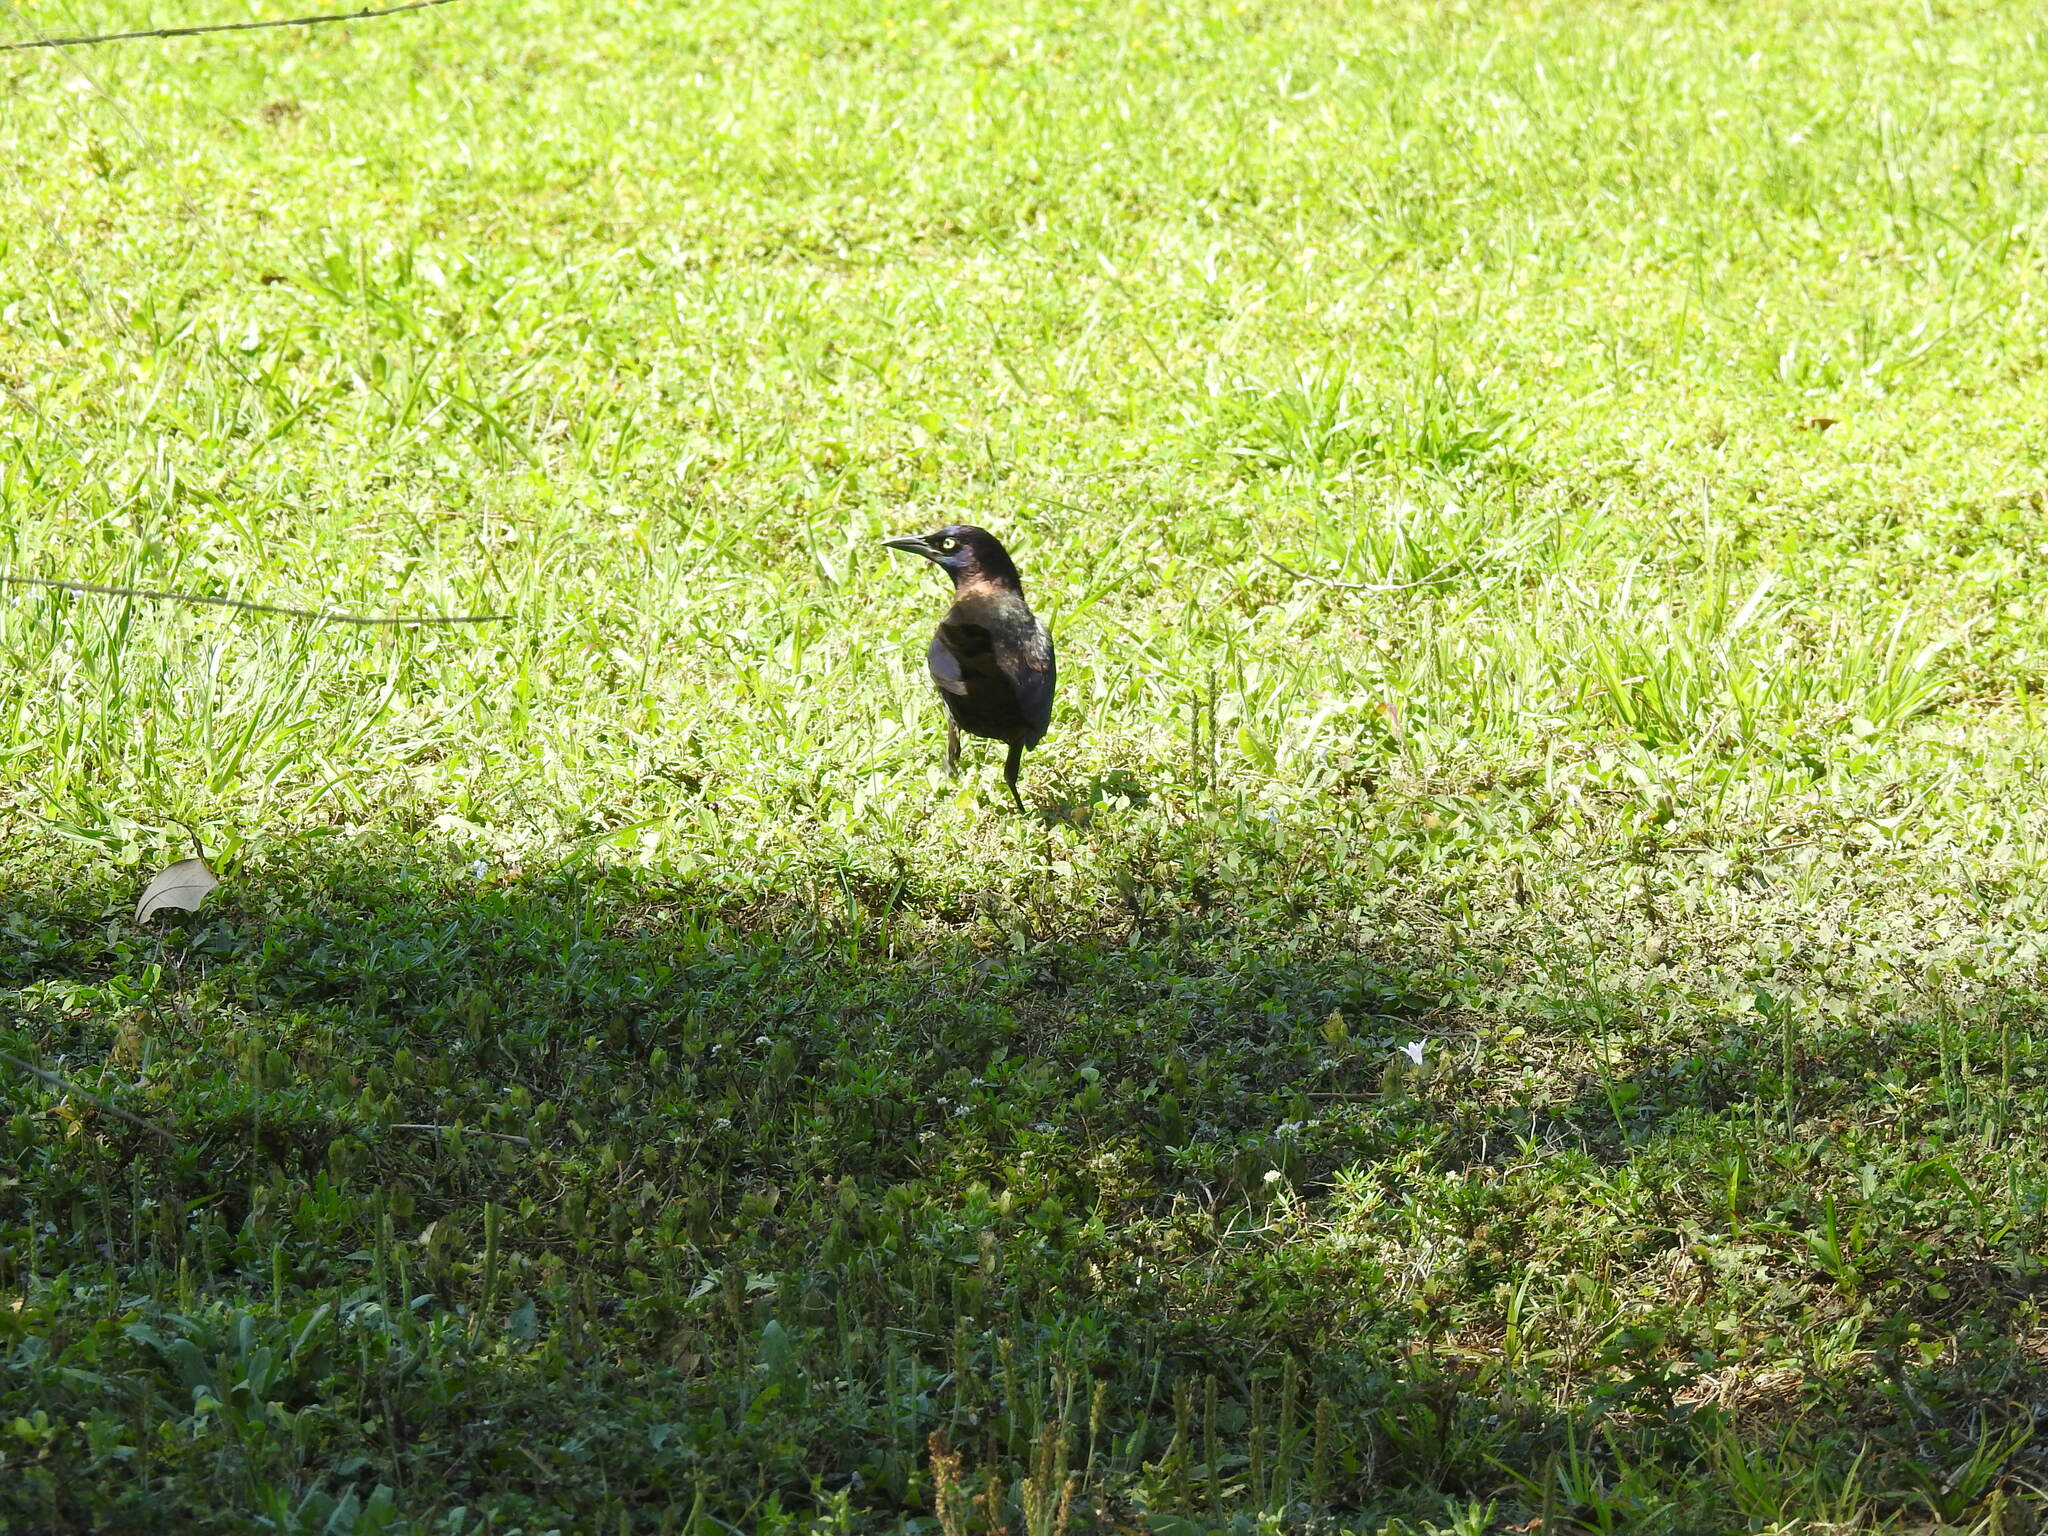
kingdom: Animalia
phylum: Chordata
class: Aves
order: Passeriformes
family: Icteridae
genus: Quiscalus
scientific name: Quiscalus quiscula
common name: Common grackle
